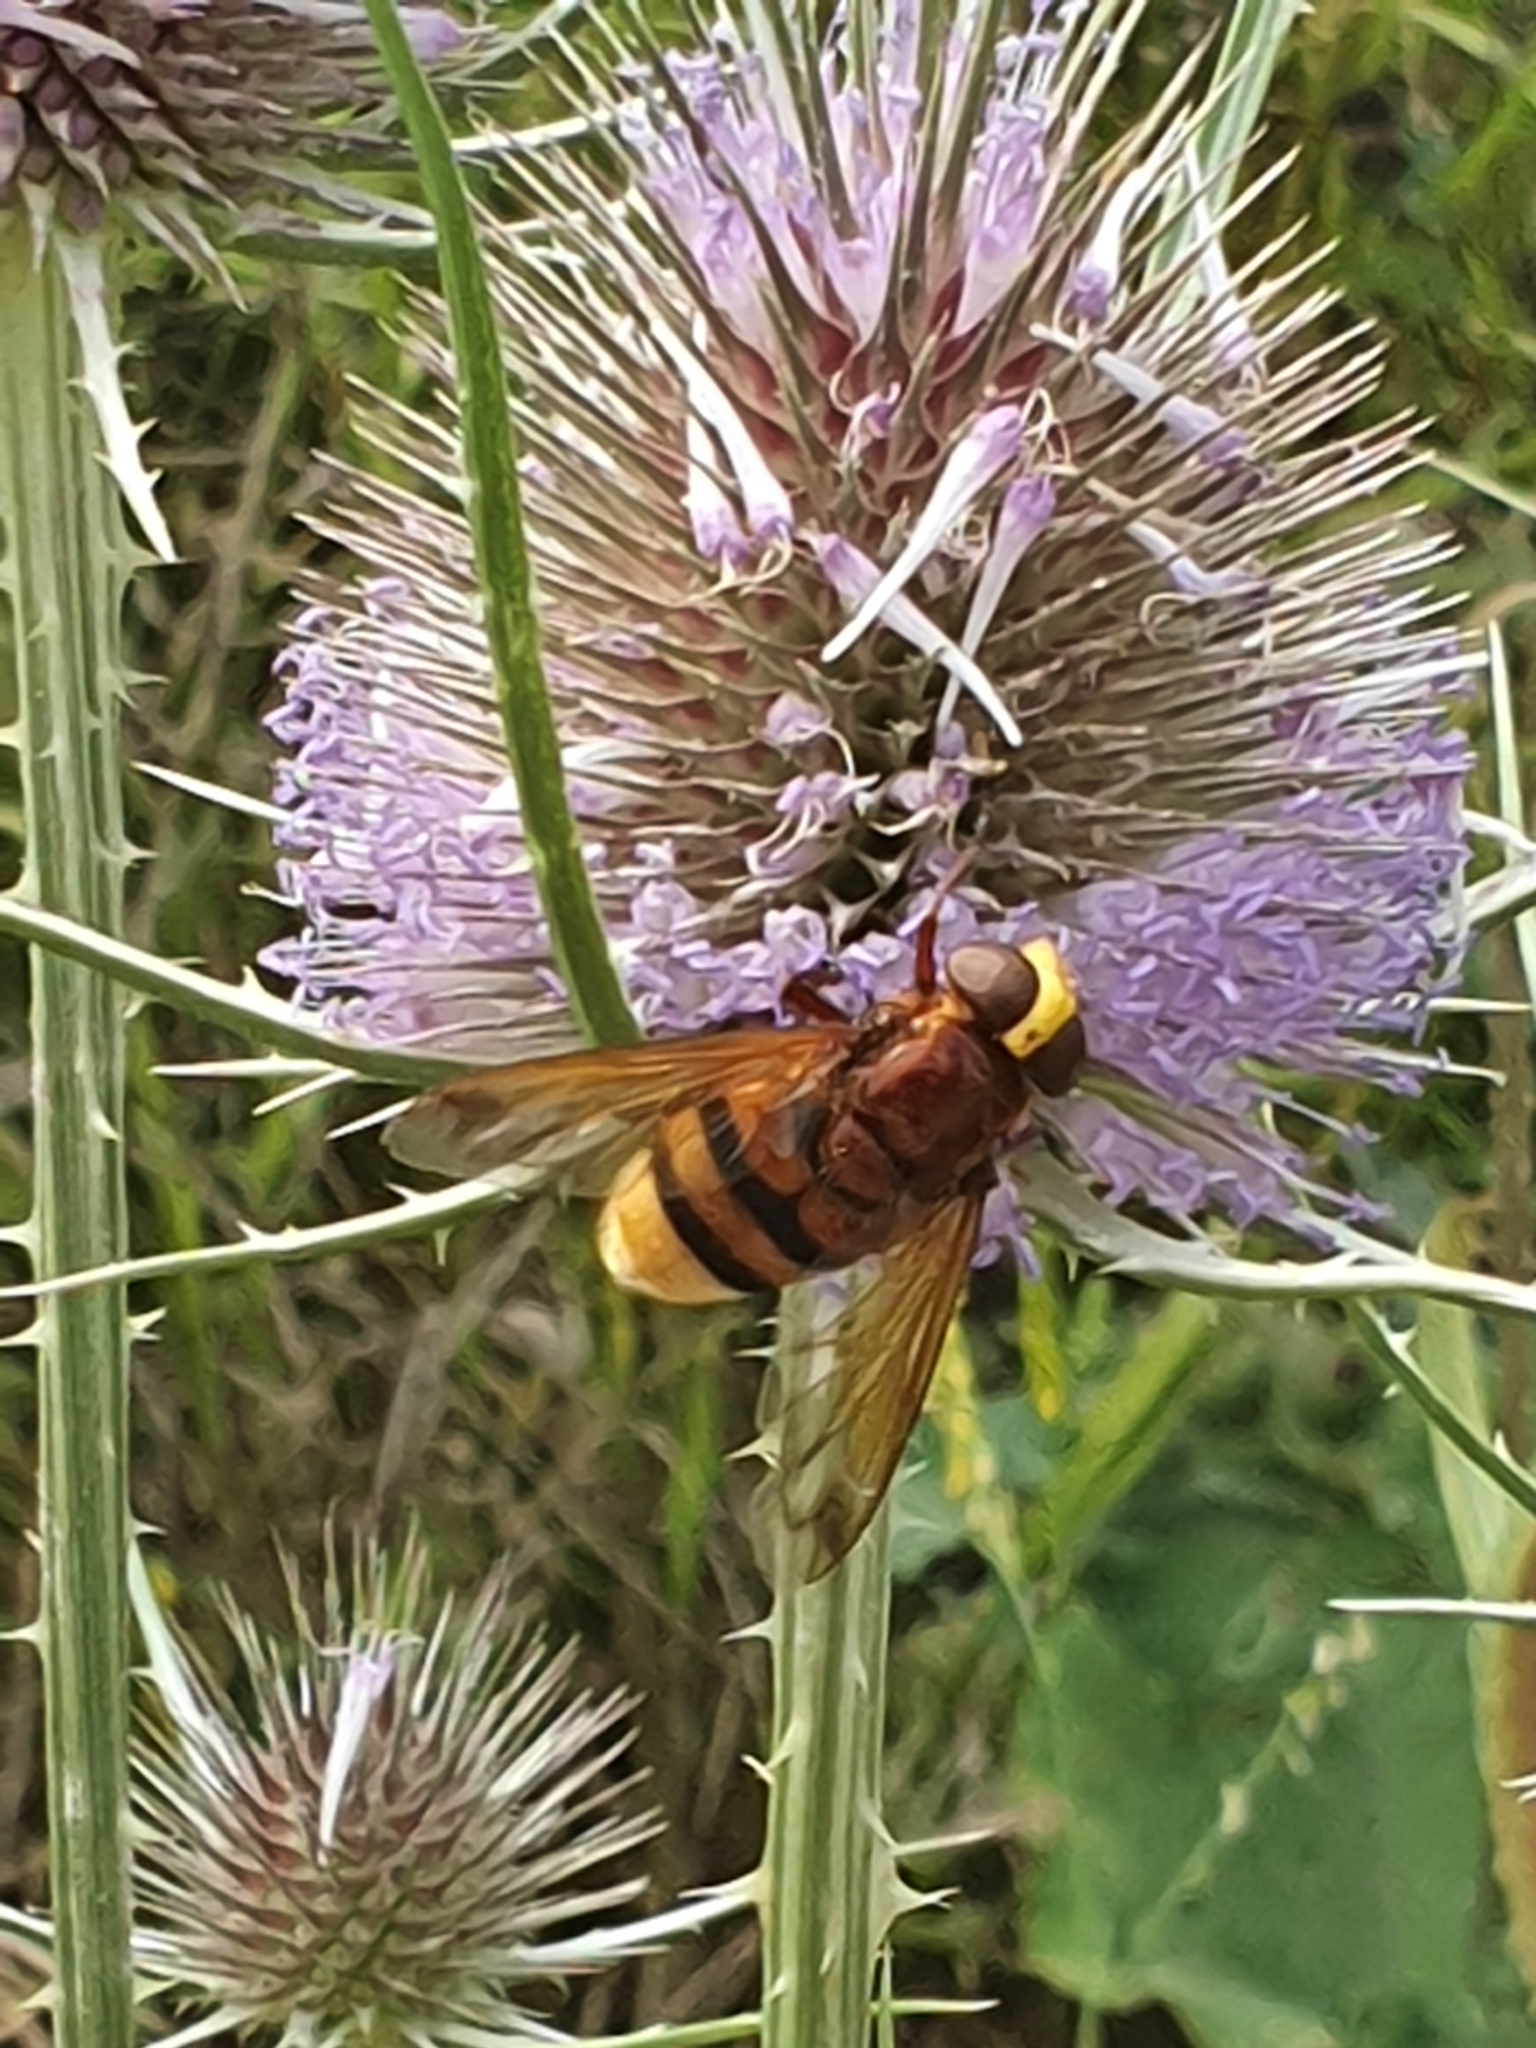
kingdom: Animalia
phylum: Arthropoda
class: Insecta
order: Diptera
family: Syrphidae
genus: Volucella
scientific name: Volucella zonaria
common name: Hornet hoverfly
